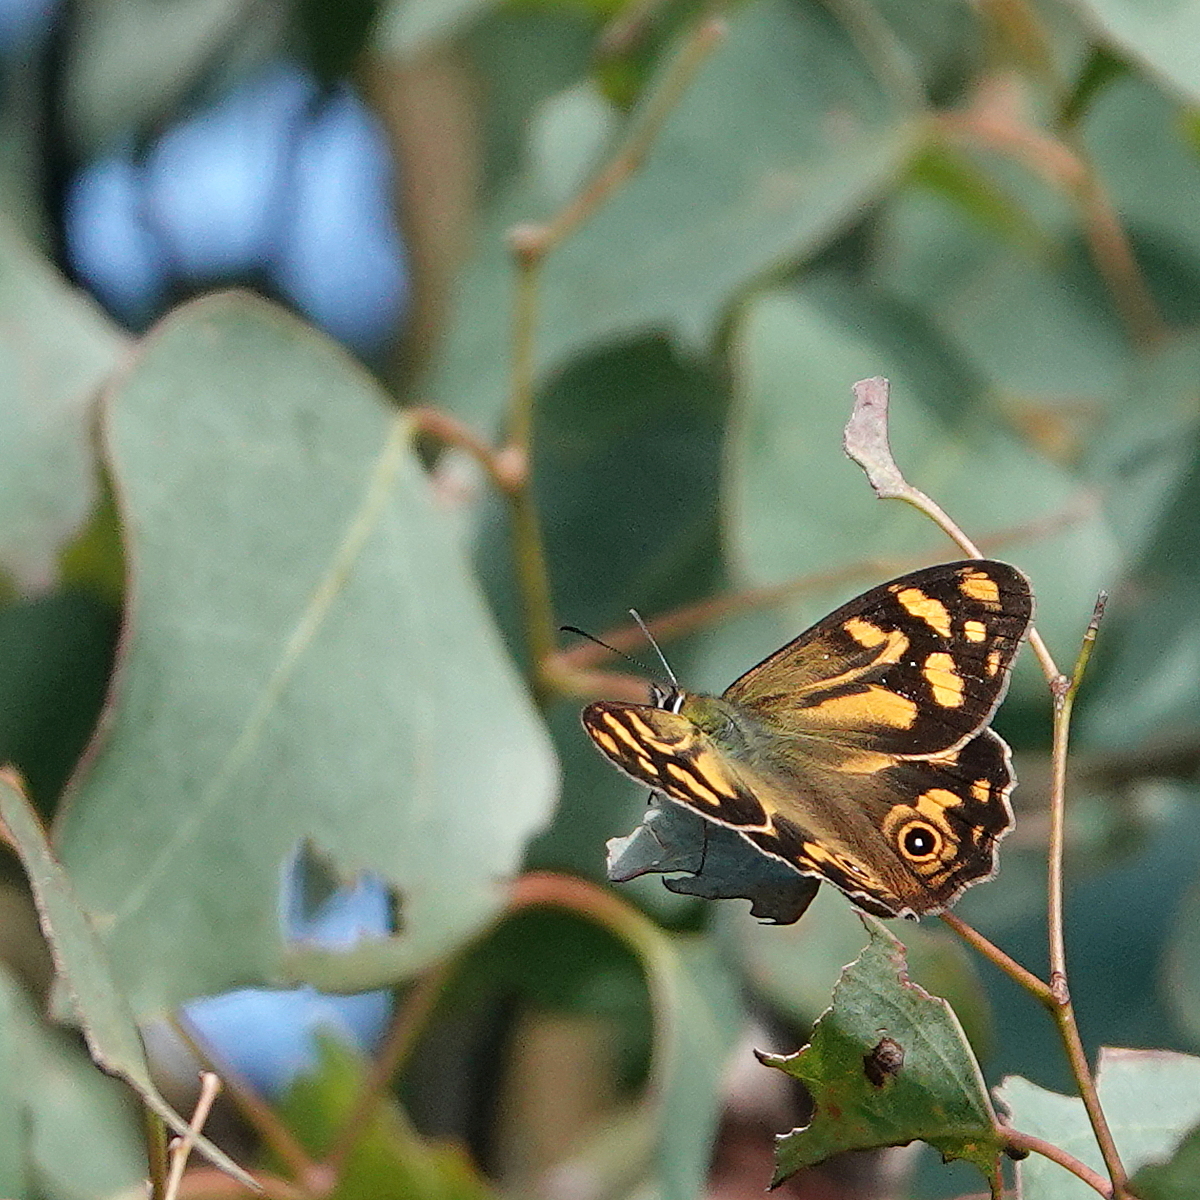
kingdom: Animalia
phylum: Arthropoda
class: Insecta
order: Lepidoptera
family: Nymphalidae
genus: Heteronympha
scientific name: Heteronympha banksii
